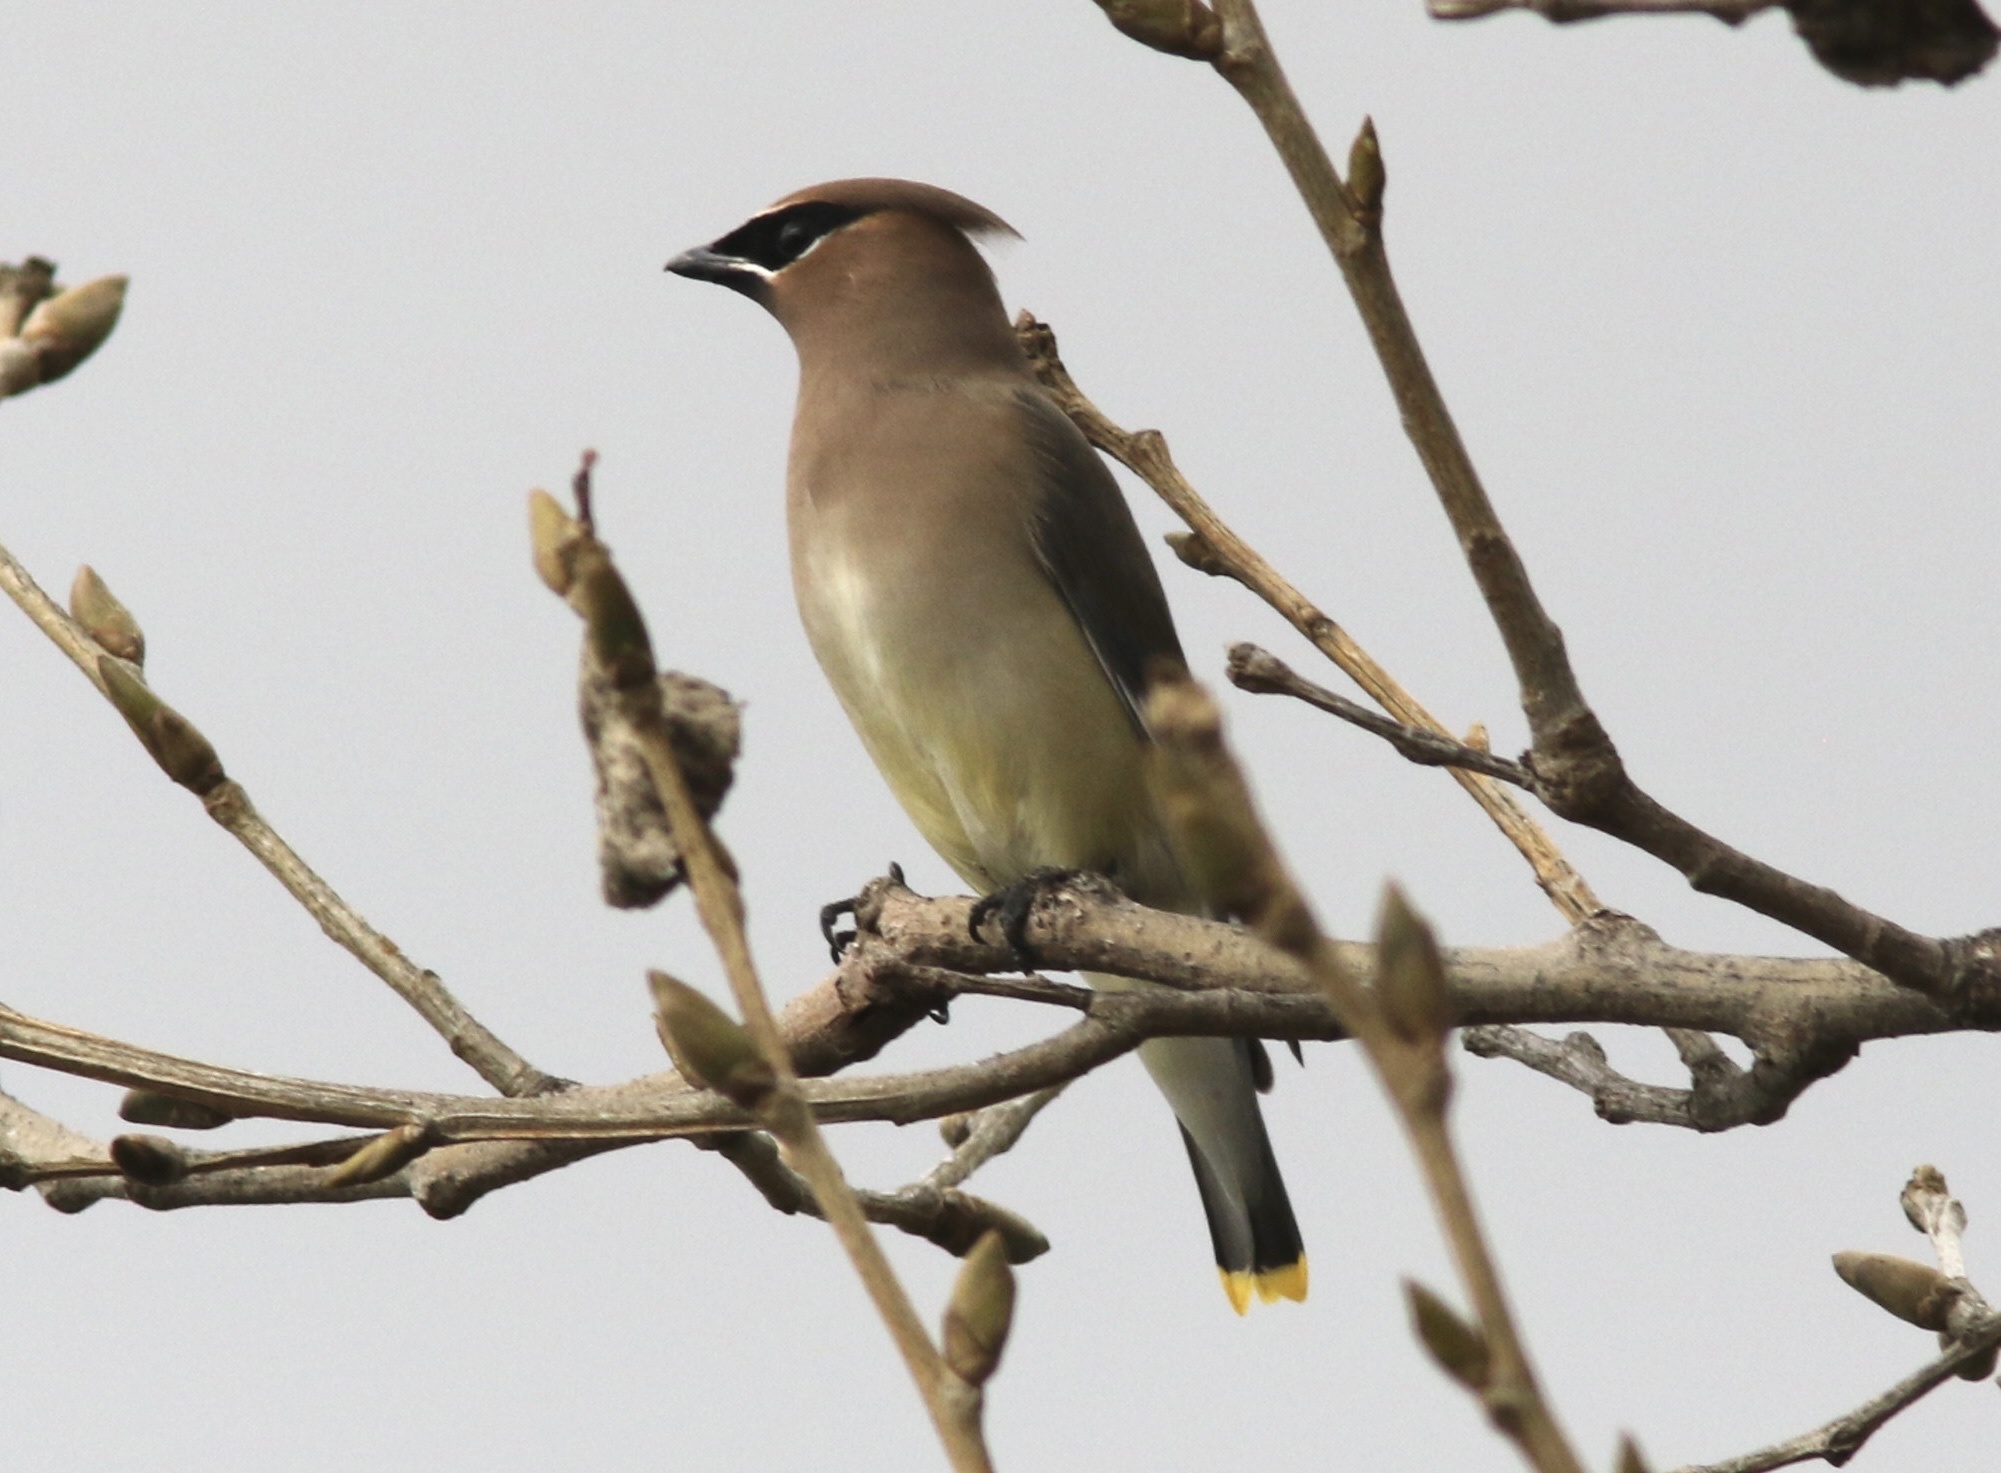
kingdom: Animalia
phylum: Chordata
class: Aves
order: Passeriformes
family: Bombycillidae
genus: Bombycilla
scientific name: Bombycilla cedrorum
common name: Cedar waxwing
